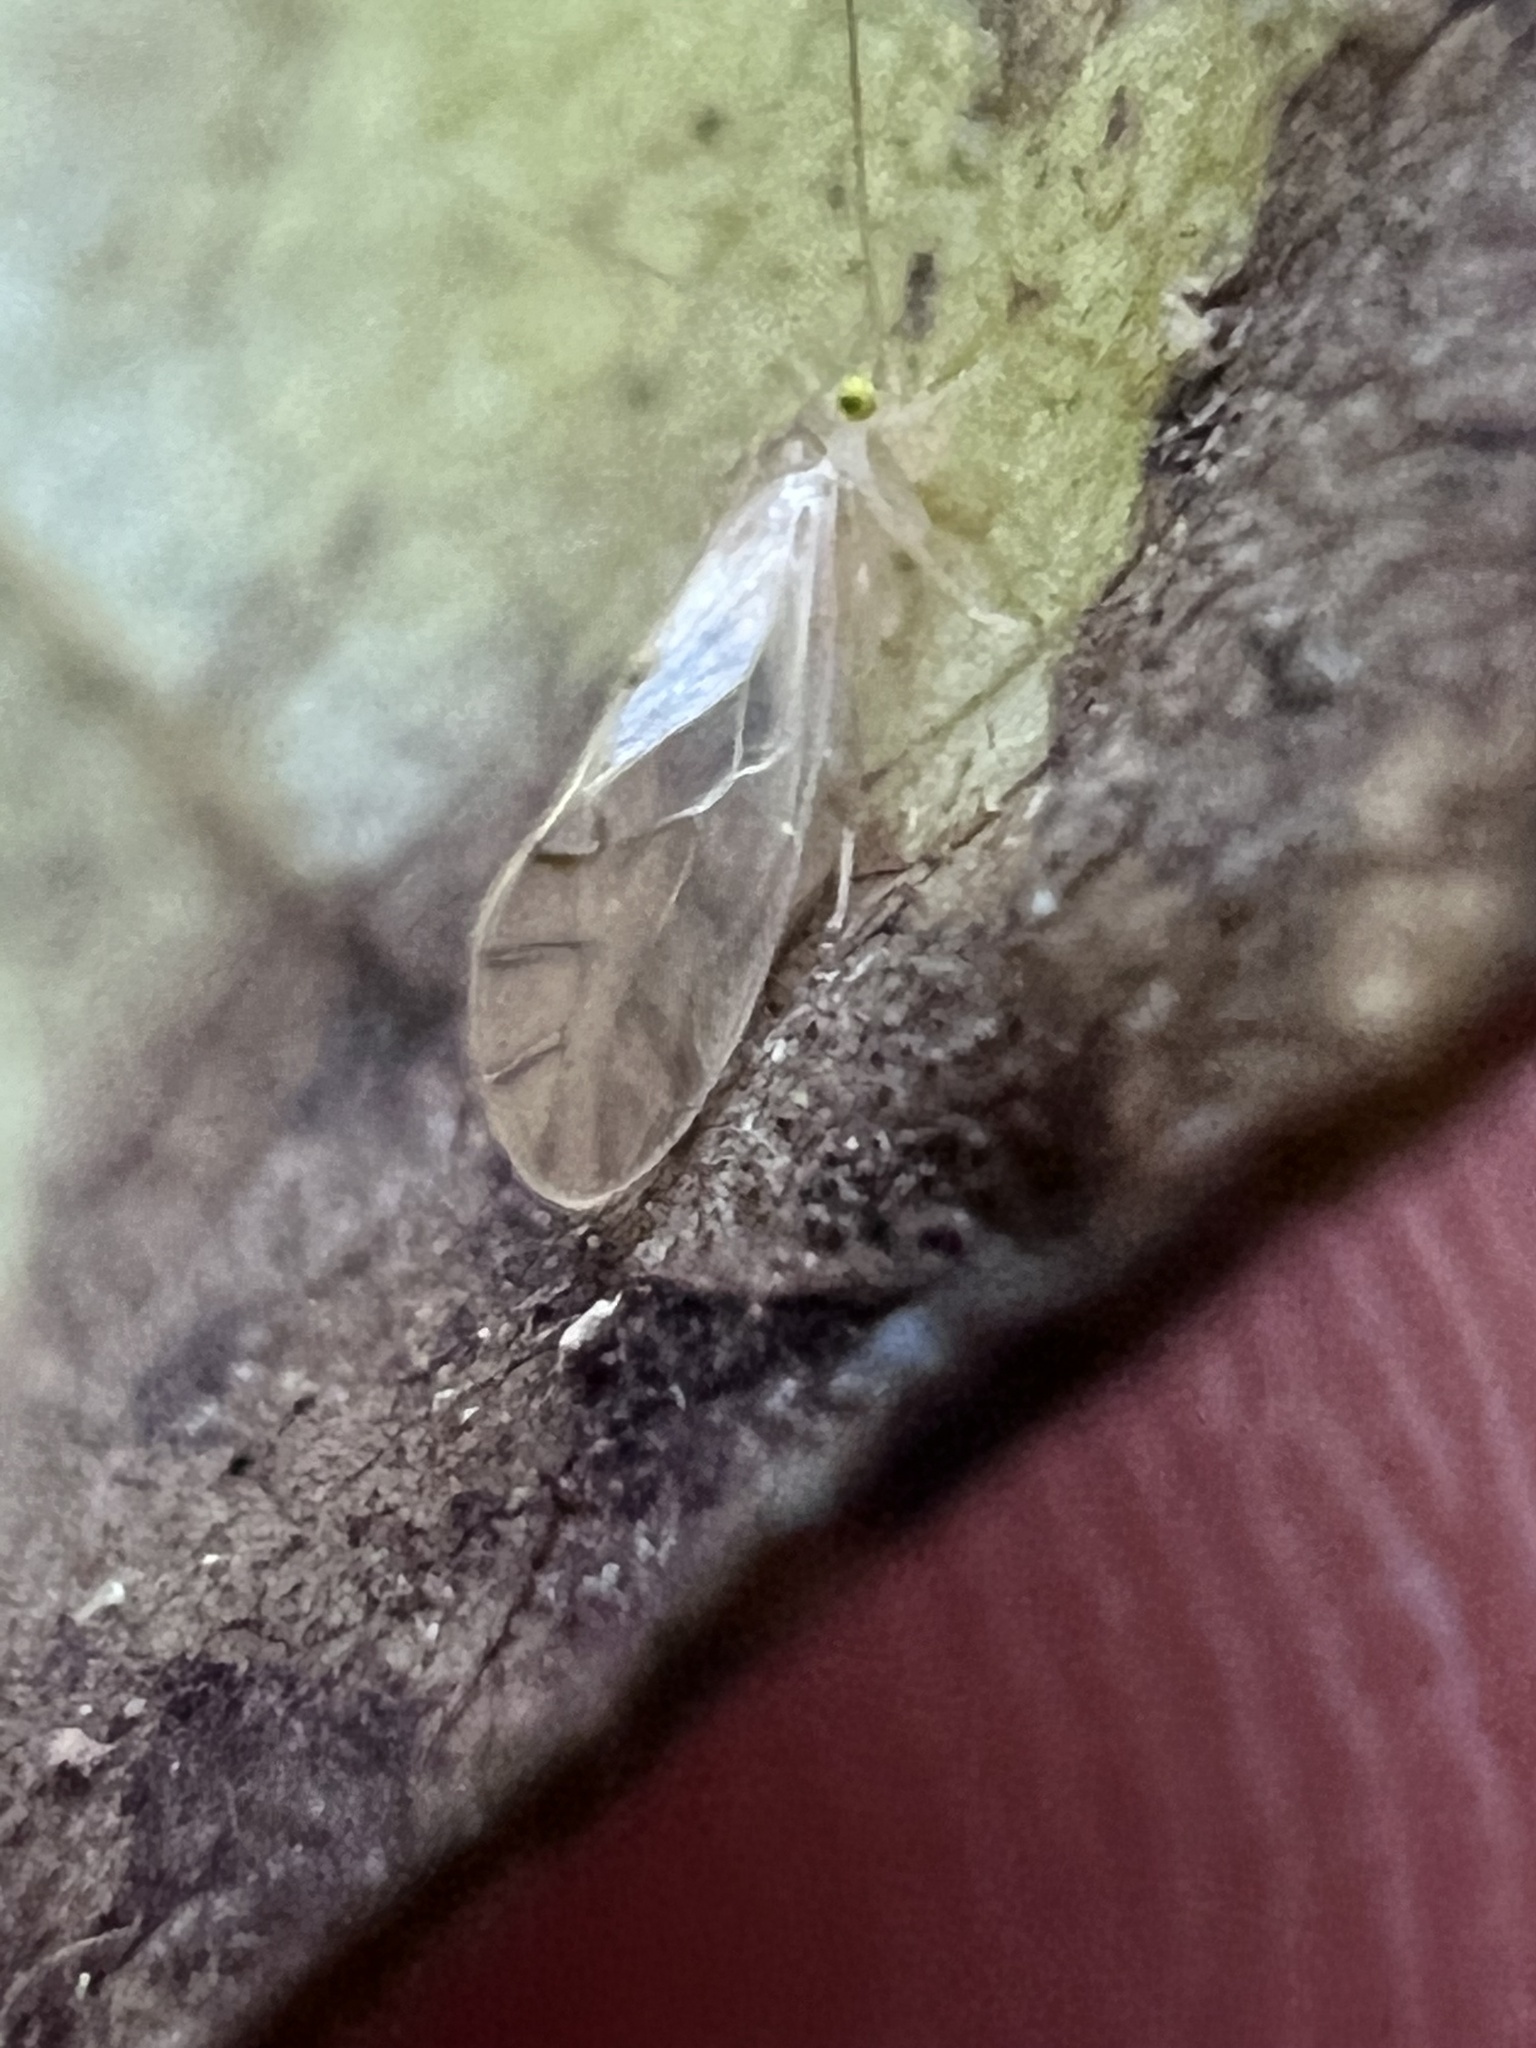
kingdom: Animalia
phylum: Arthropoda
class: Insecta
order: Psocodea
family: Paracaeciliidae
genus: Xanthocaecilius
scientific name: Xanthocaecilius sommermanae
